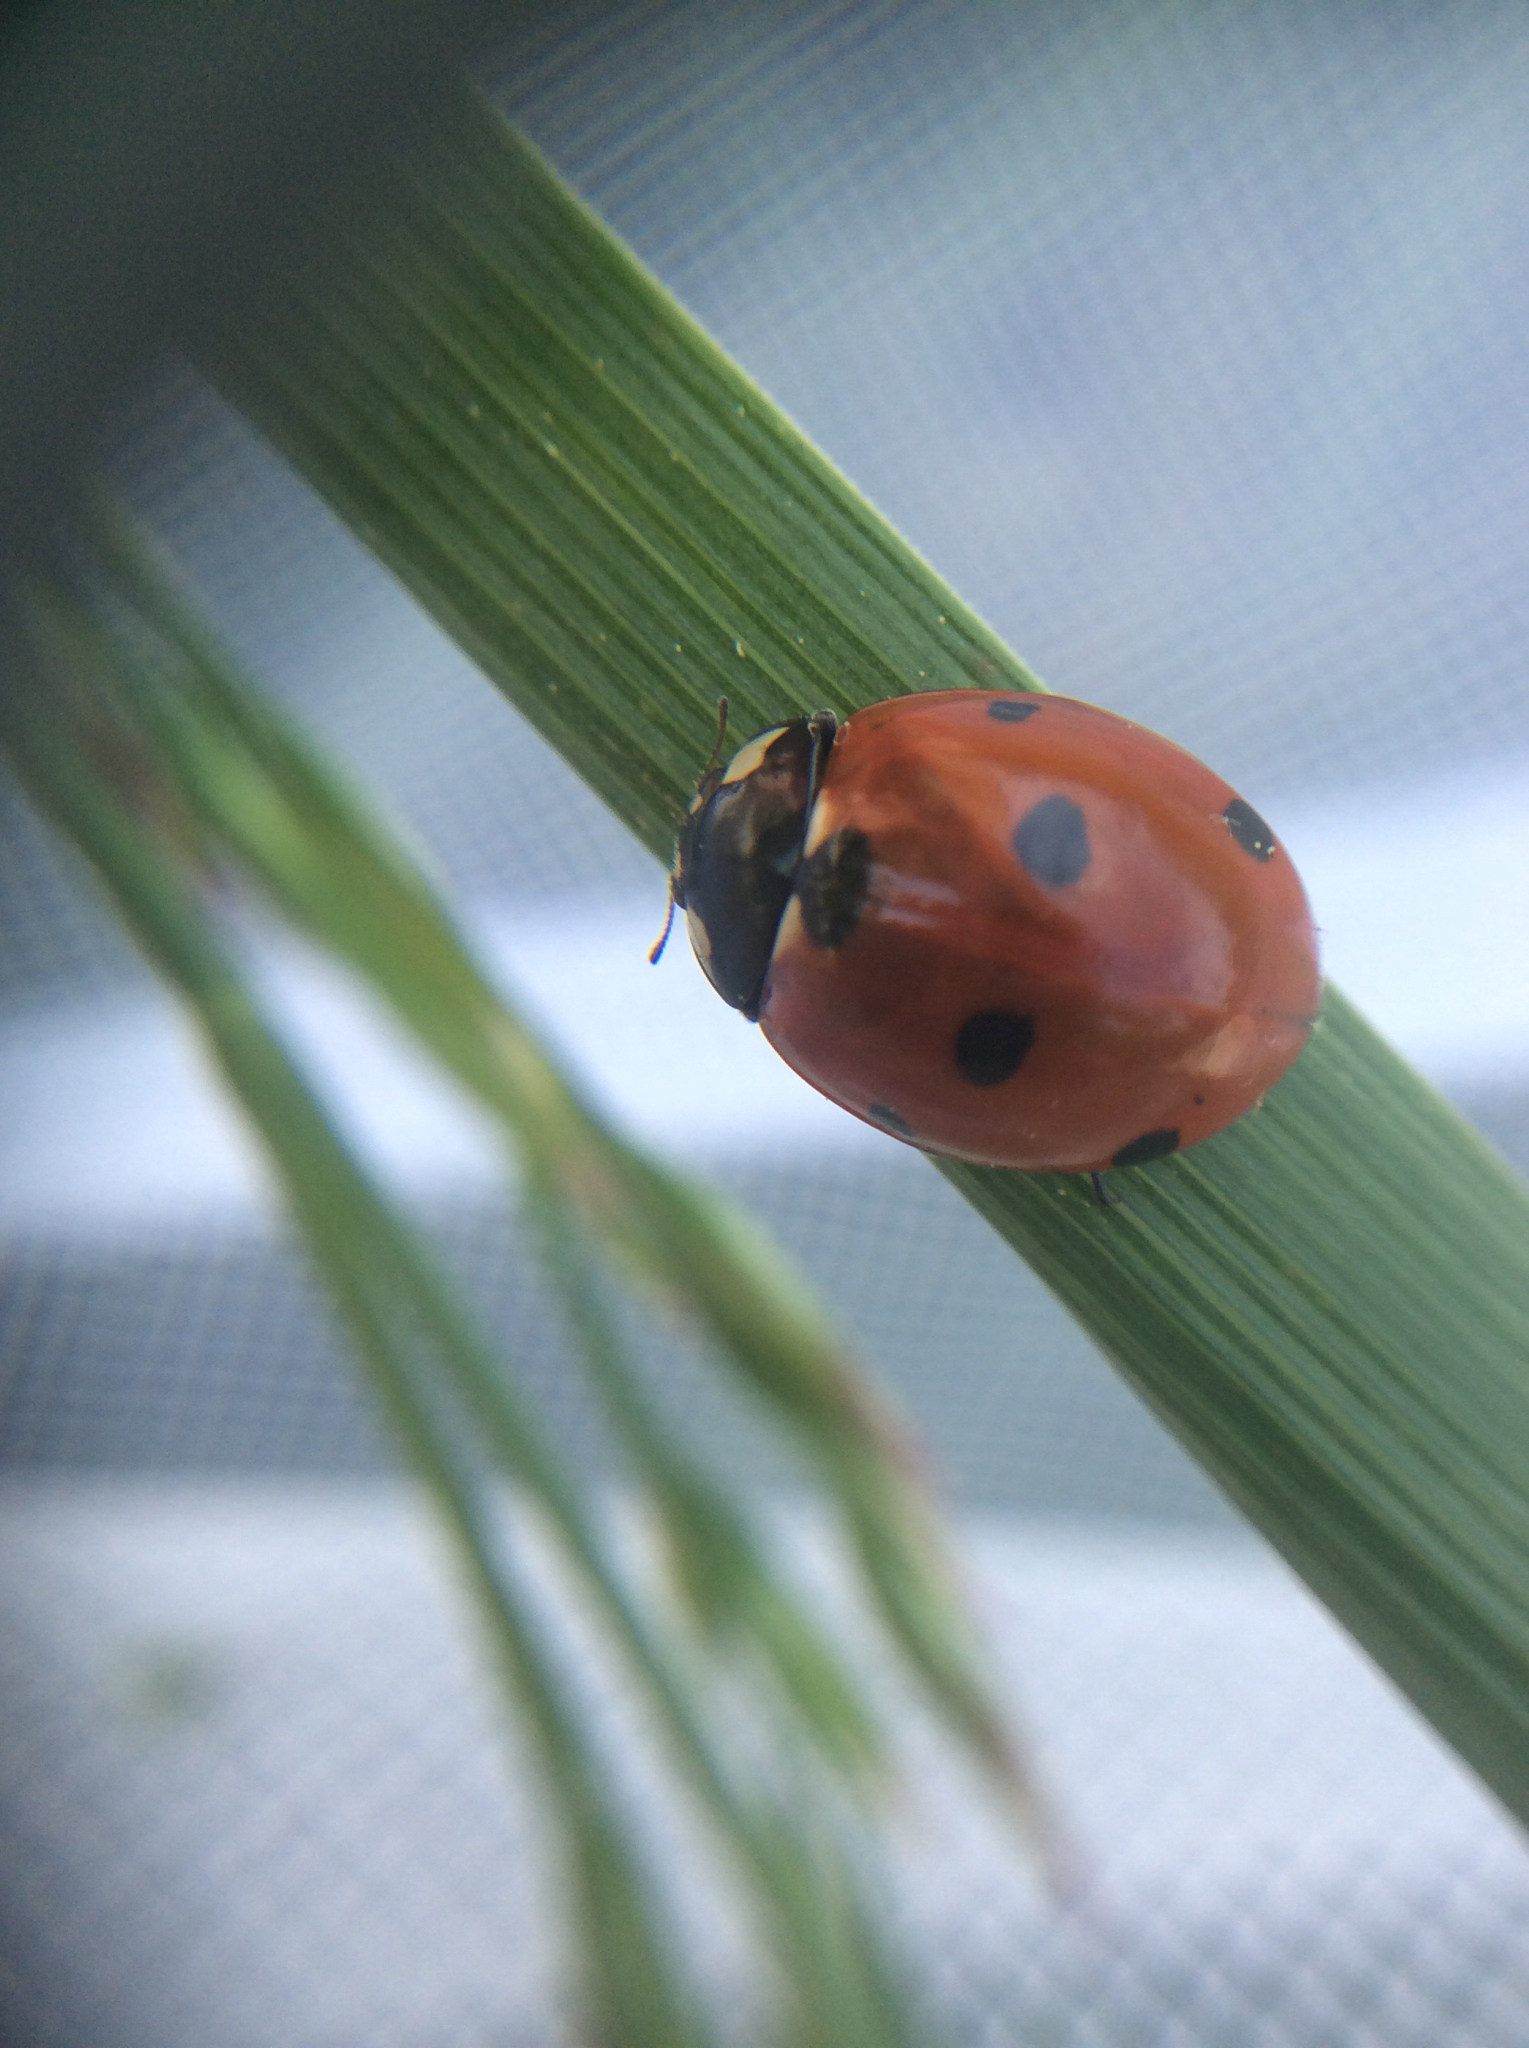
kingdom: Animalia
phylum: Arthropoda
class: Insecta
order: Coleoptera
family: Coccinellidae
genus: Coccinella
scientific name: Coccinella septempunctata
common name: Sevenspotted lady beetle
